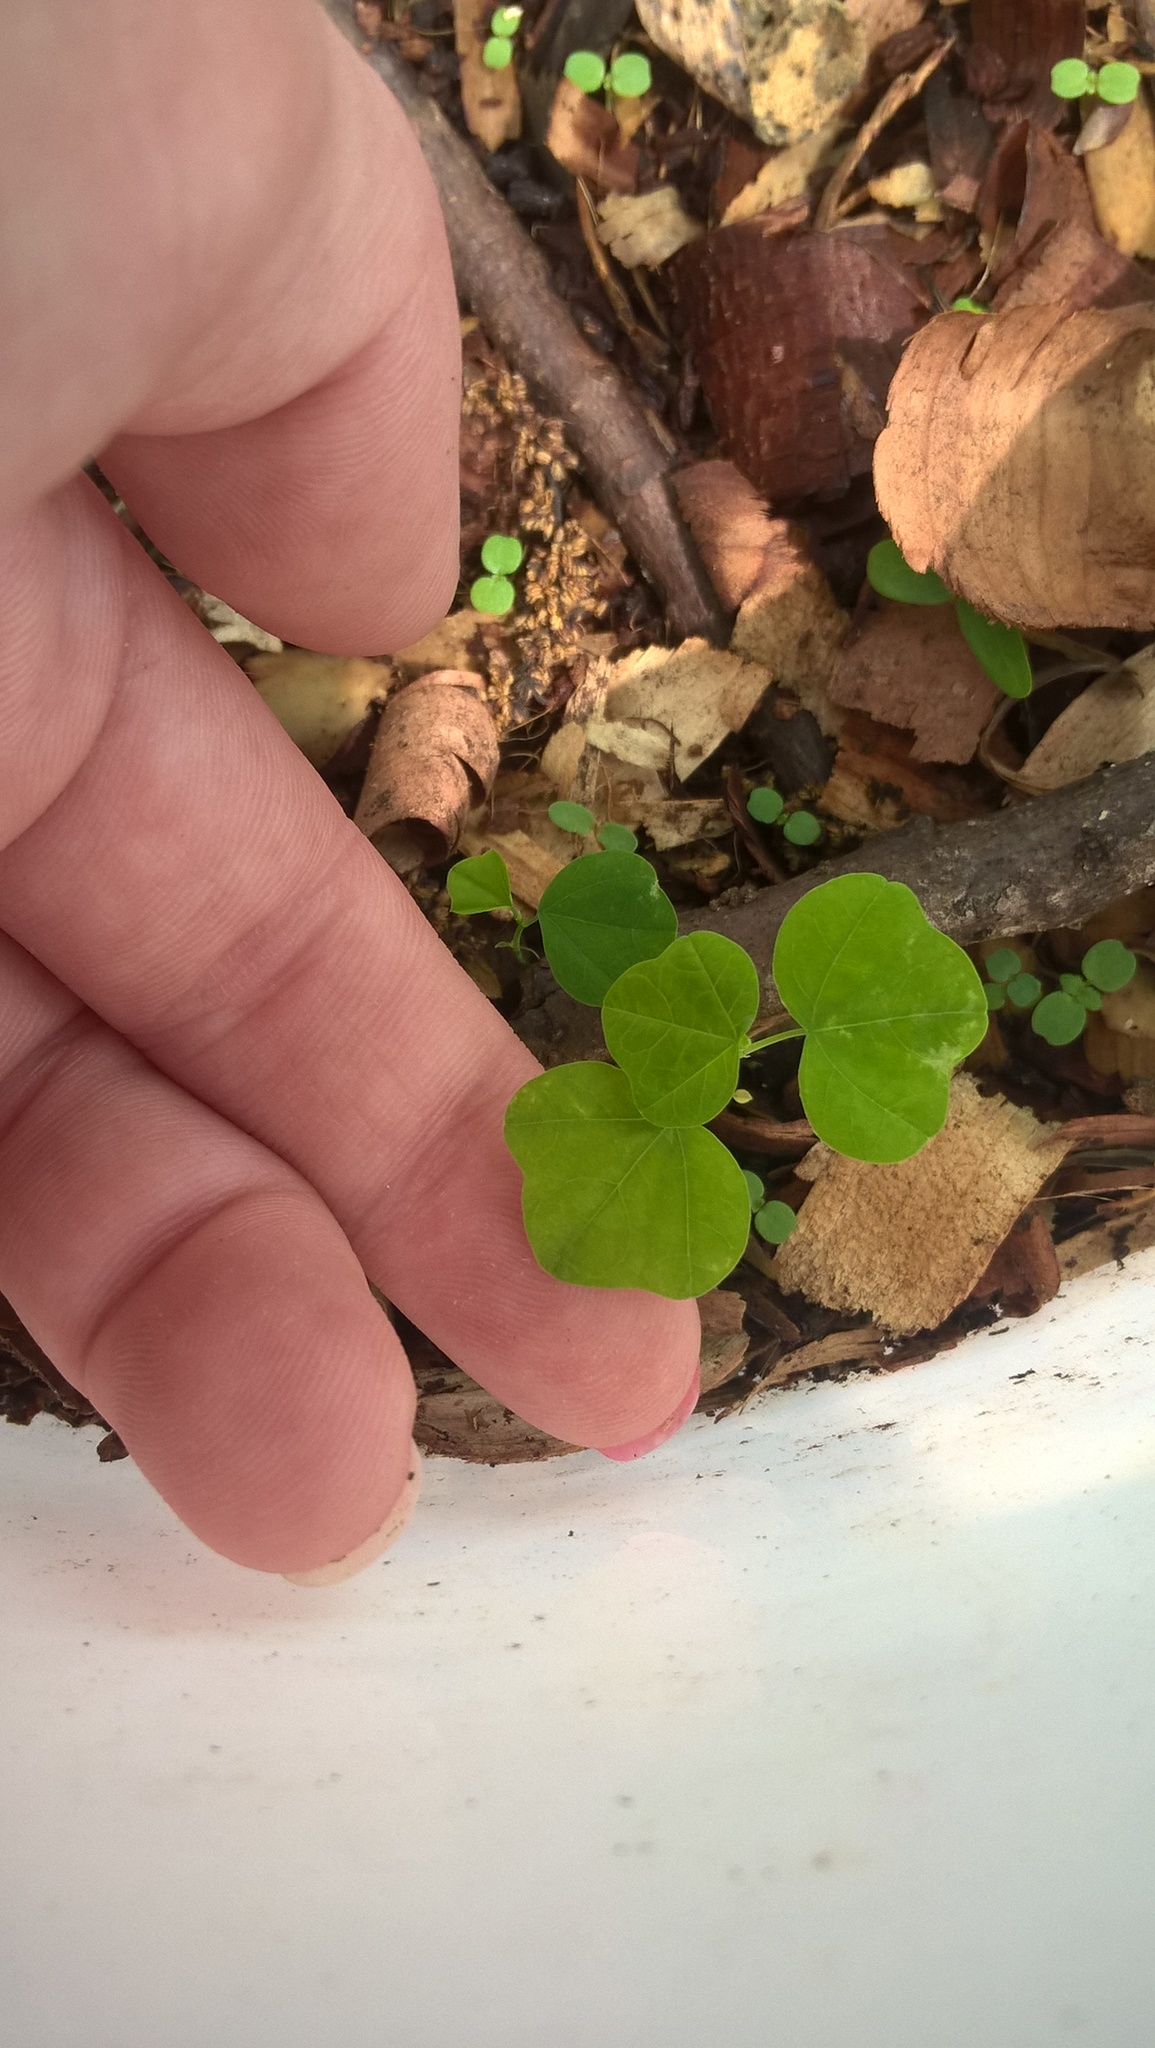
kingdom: Plantae
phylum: Tracheophyta
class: Magnoliopsida
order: Malpighiales
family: Passifloraceae
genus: Passiflora
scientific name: Passiflora lutea
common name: Yellow passionflower
